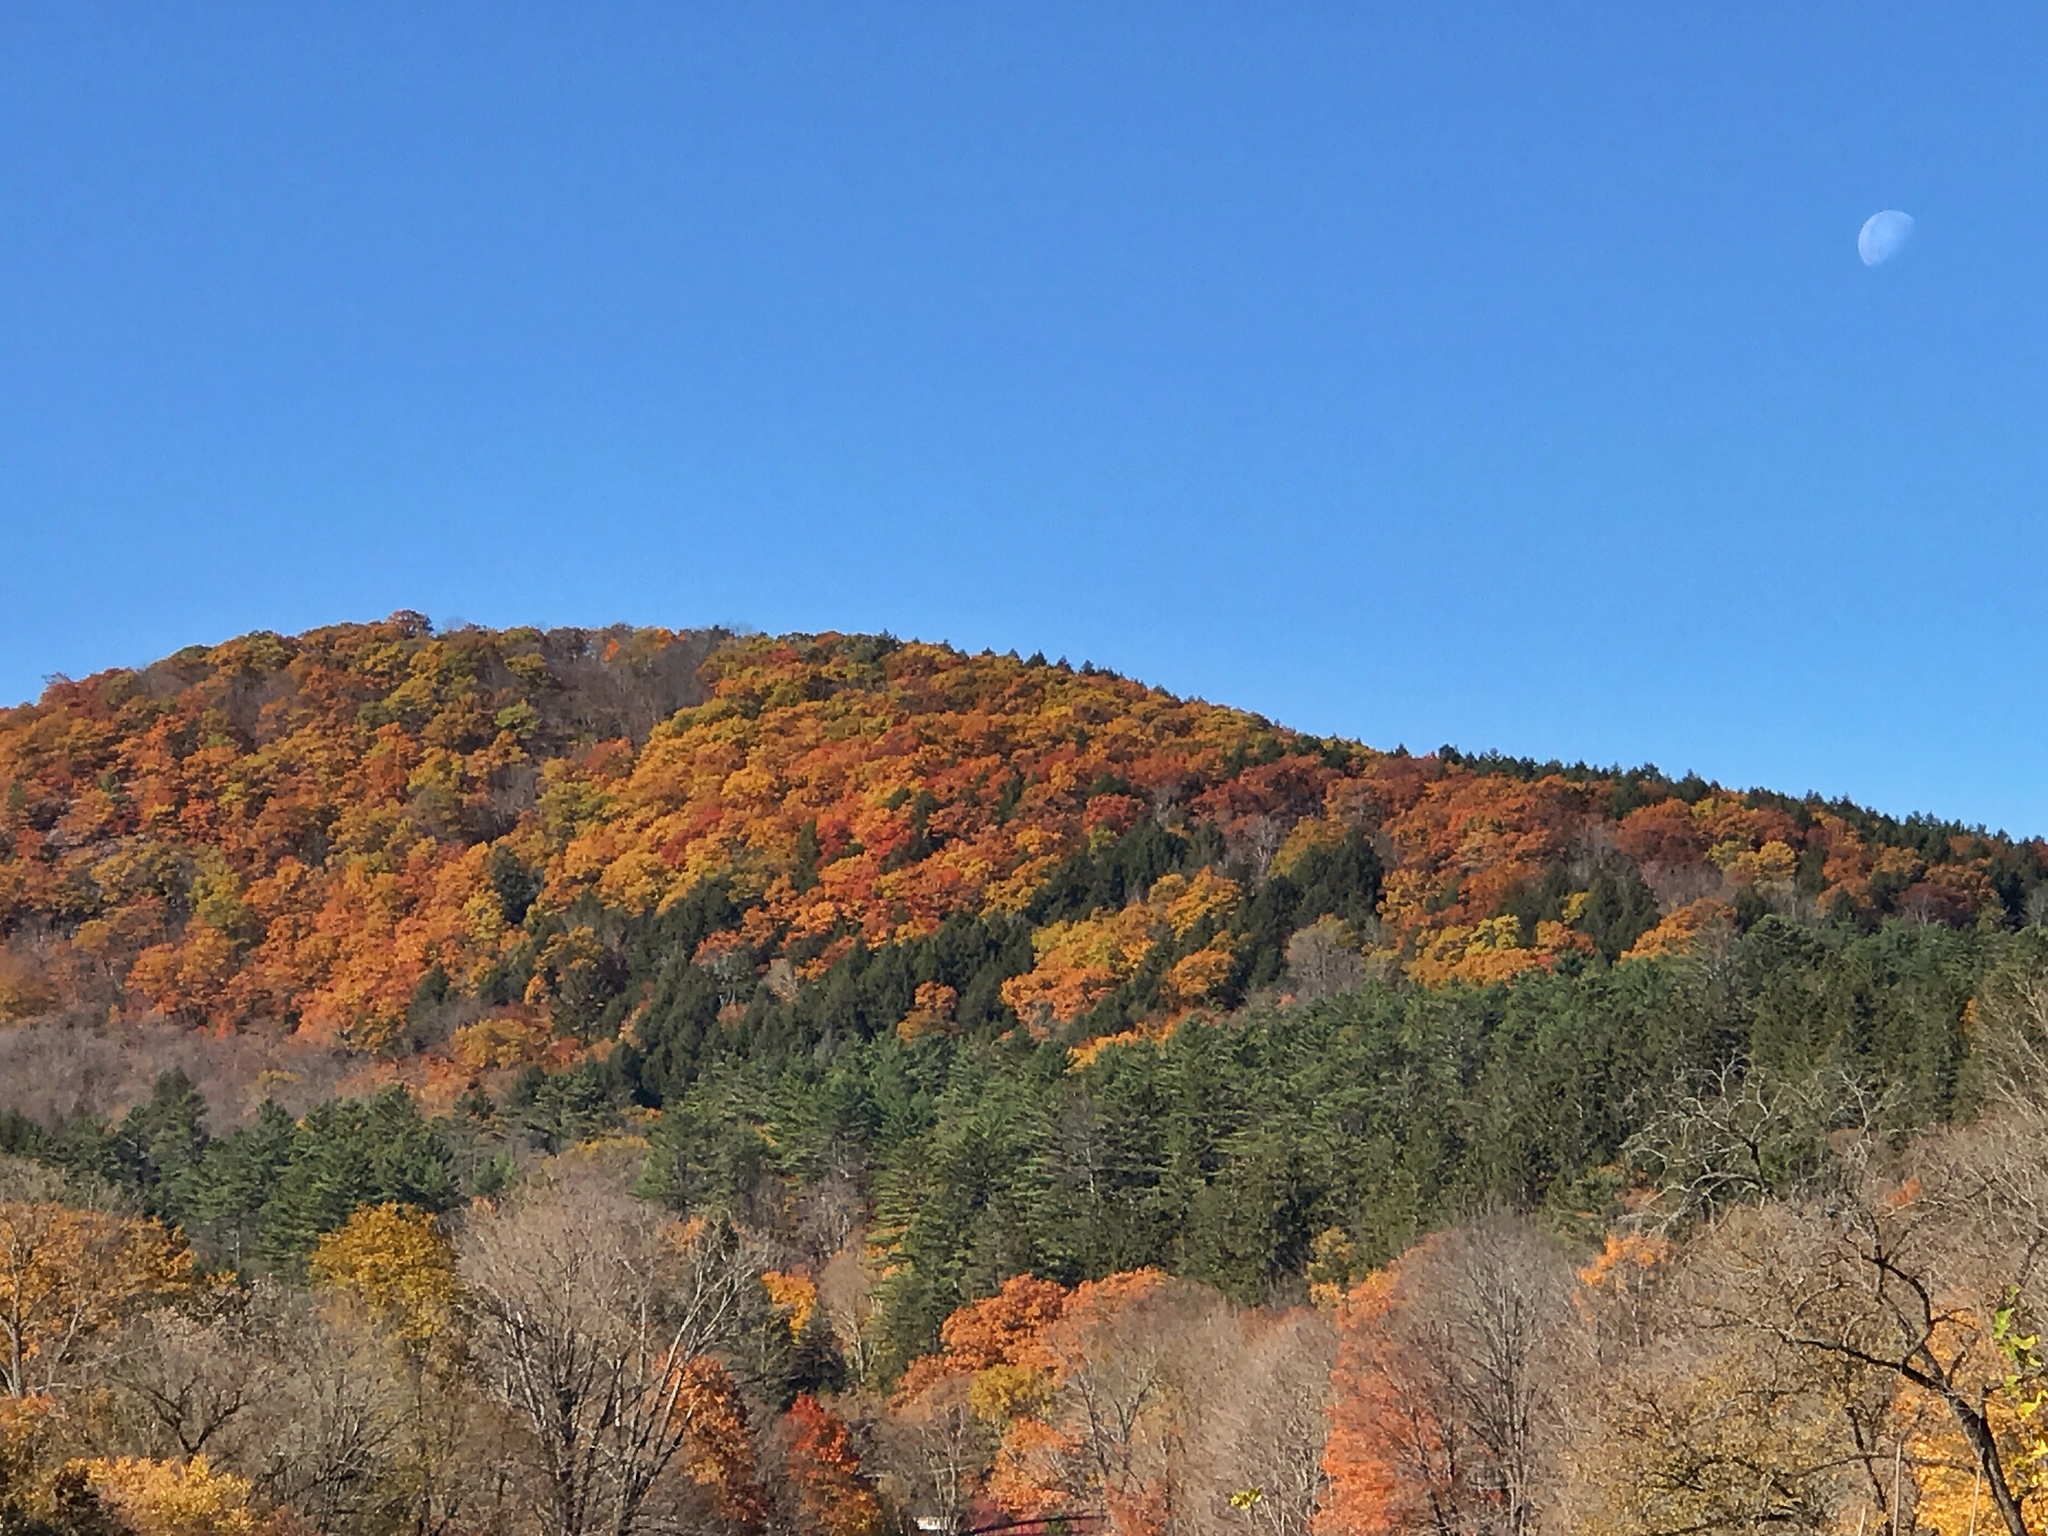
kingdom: Plantae
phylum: Tracheophyta
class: Magnoliopsida
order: Fagales
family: Fagaceae
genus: Quercus
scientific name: Quercus rubra
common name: Red oak
